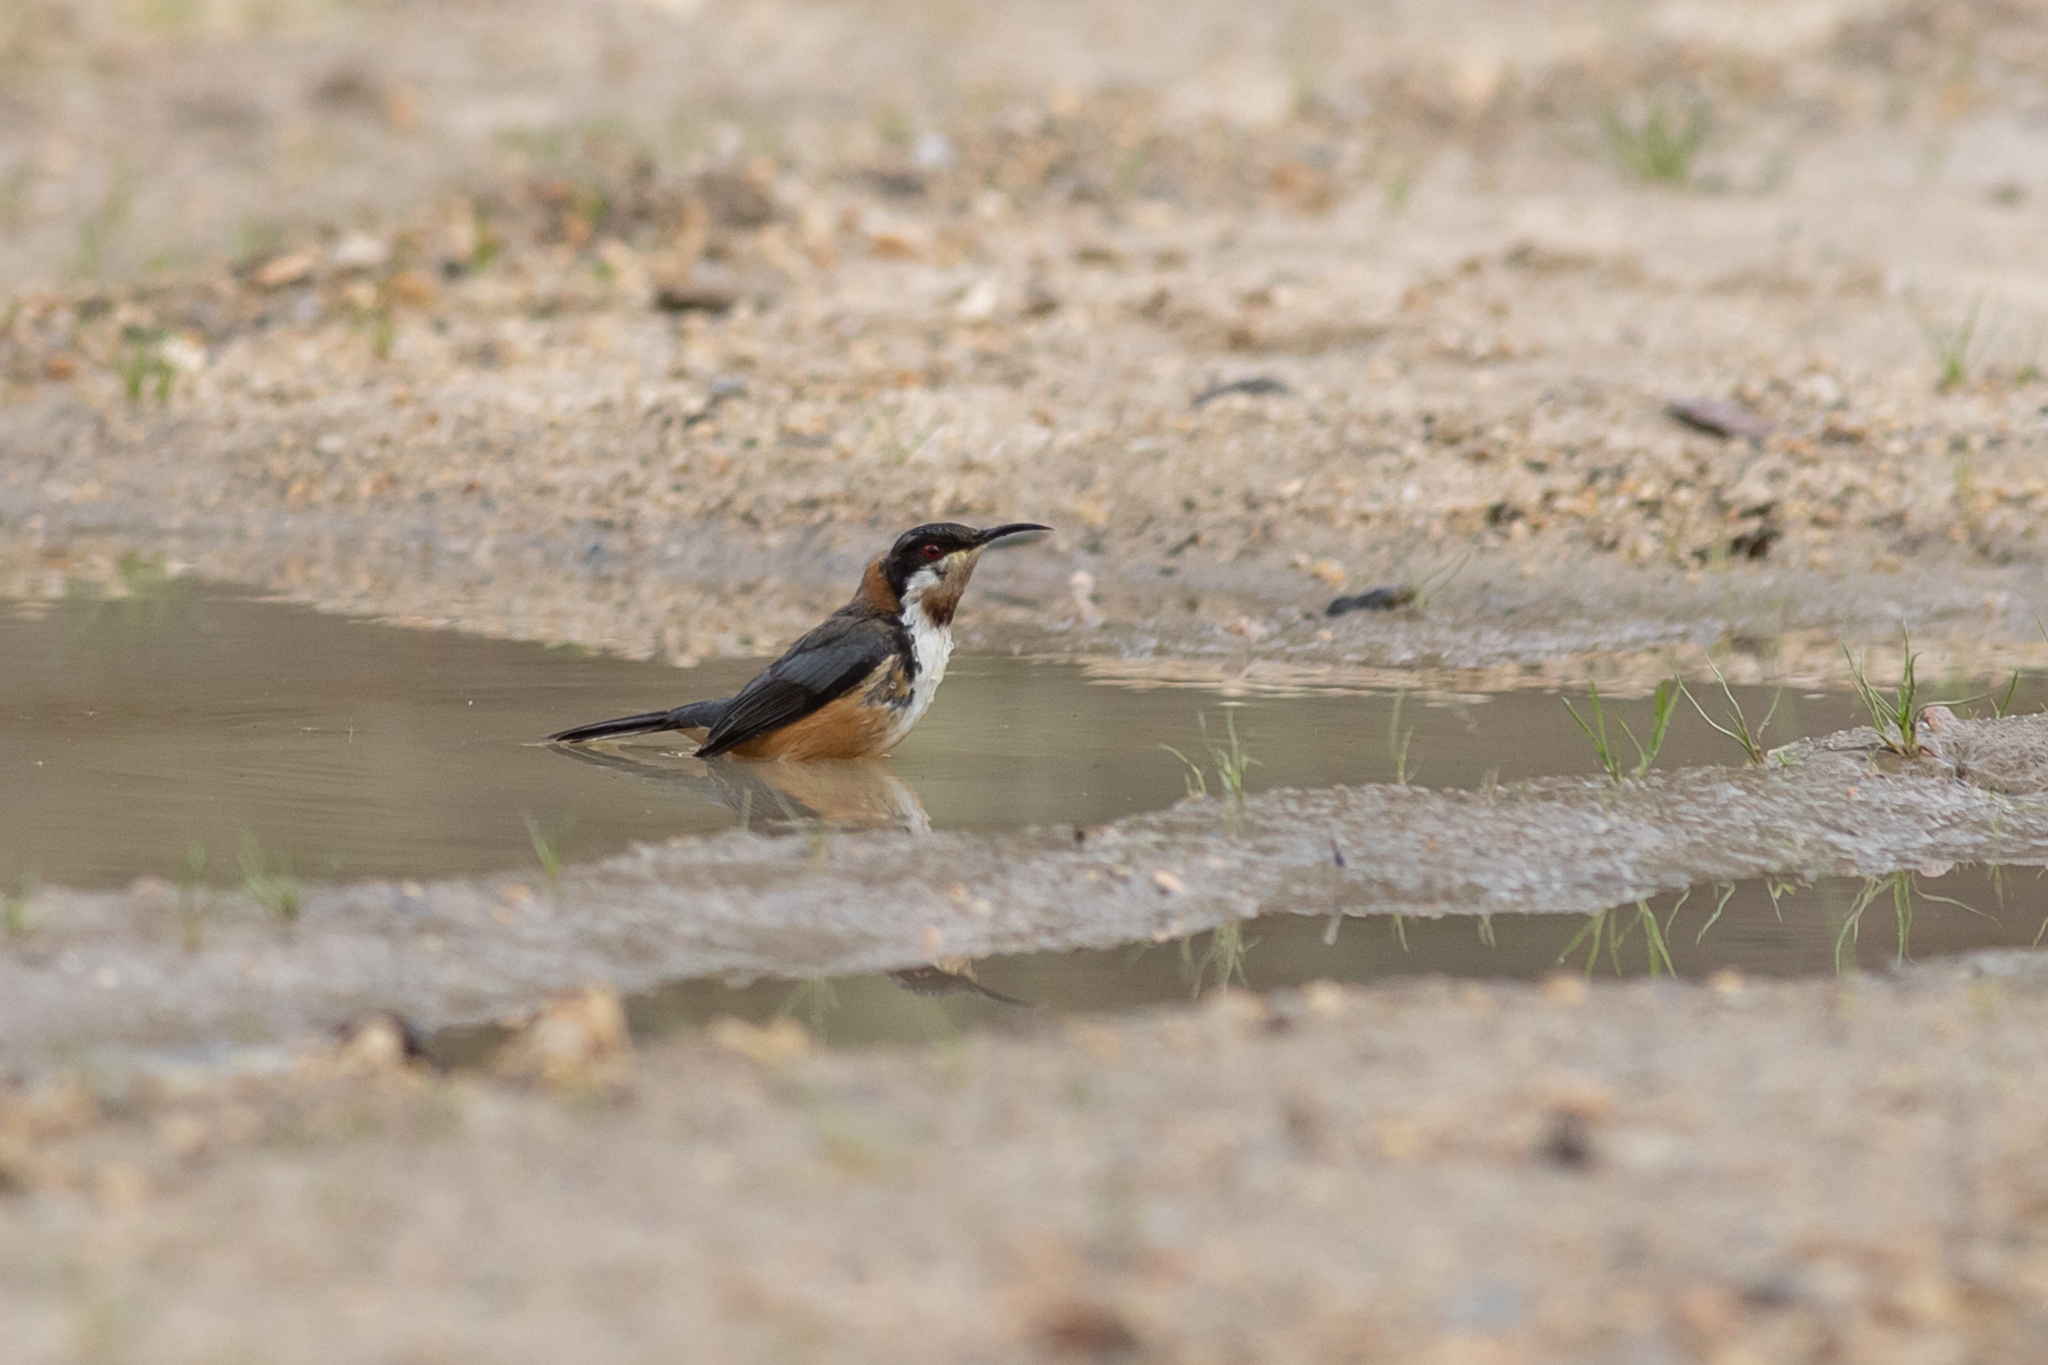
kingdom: Animalia
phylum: Chordata
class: Aves
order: Passeriformes
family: Meliphagidae
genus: Acanthorhynchus
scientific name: Acanthorhynchus tenuirostris
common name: Eastern spinebill
